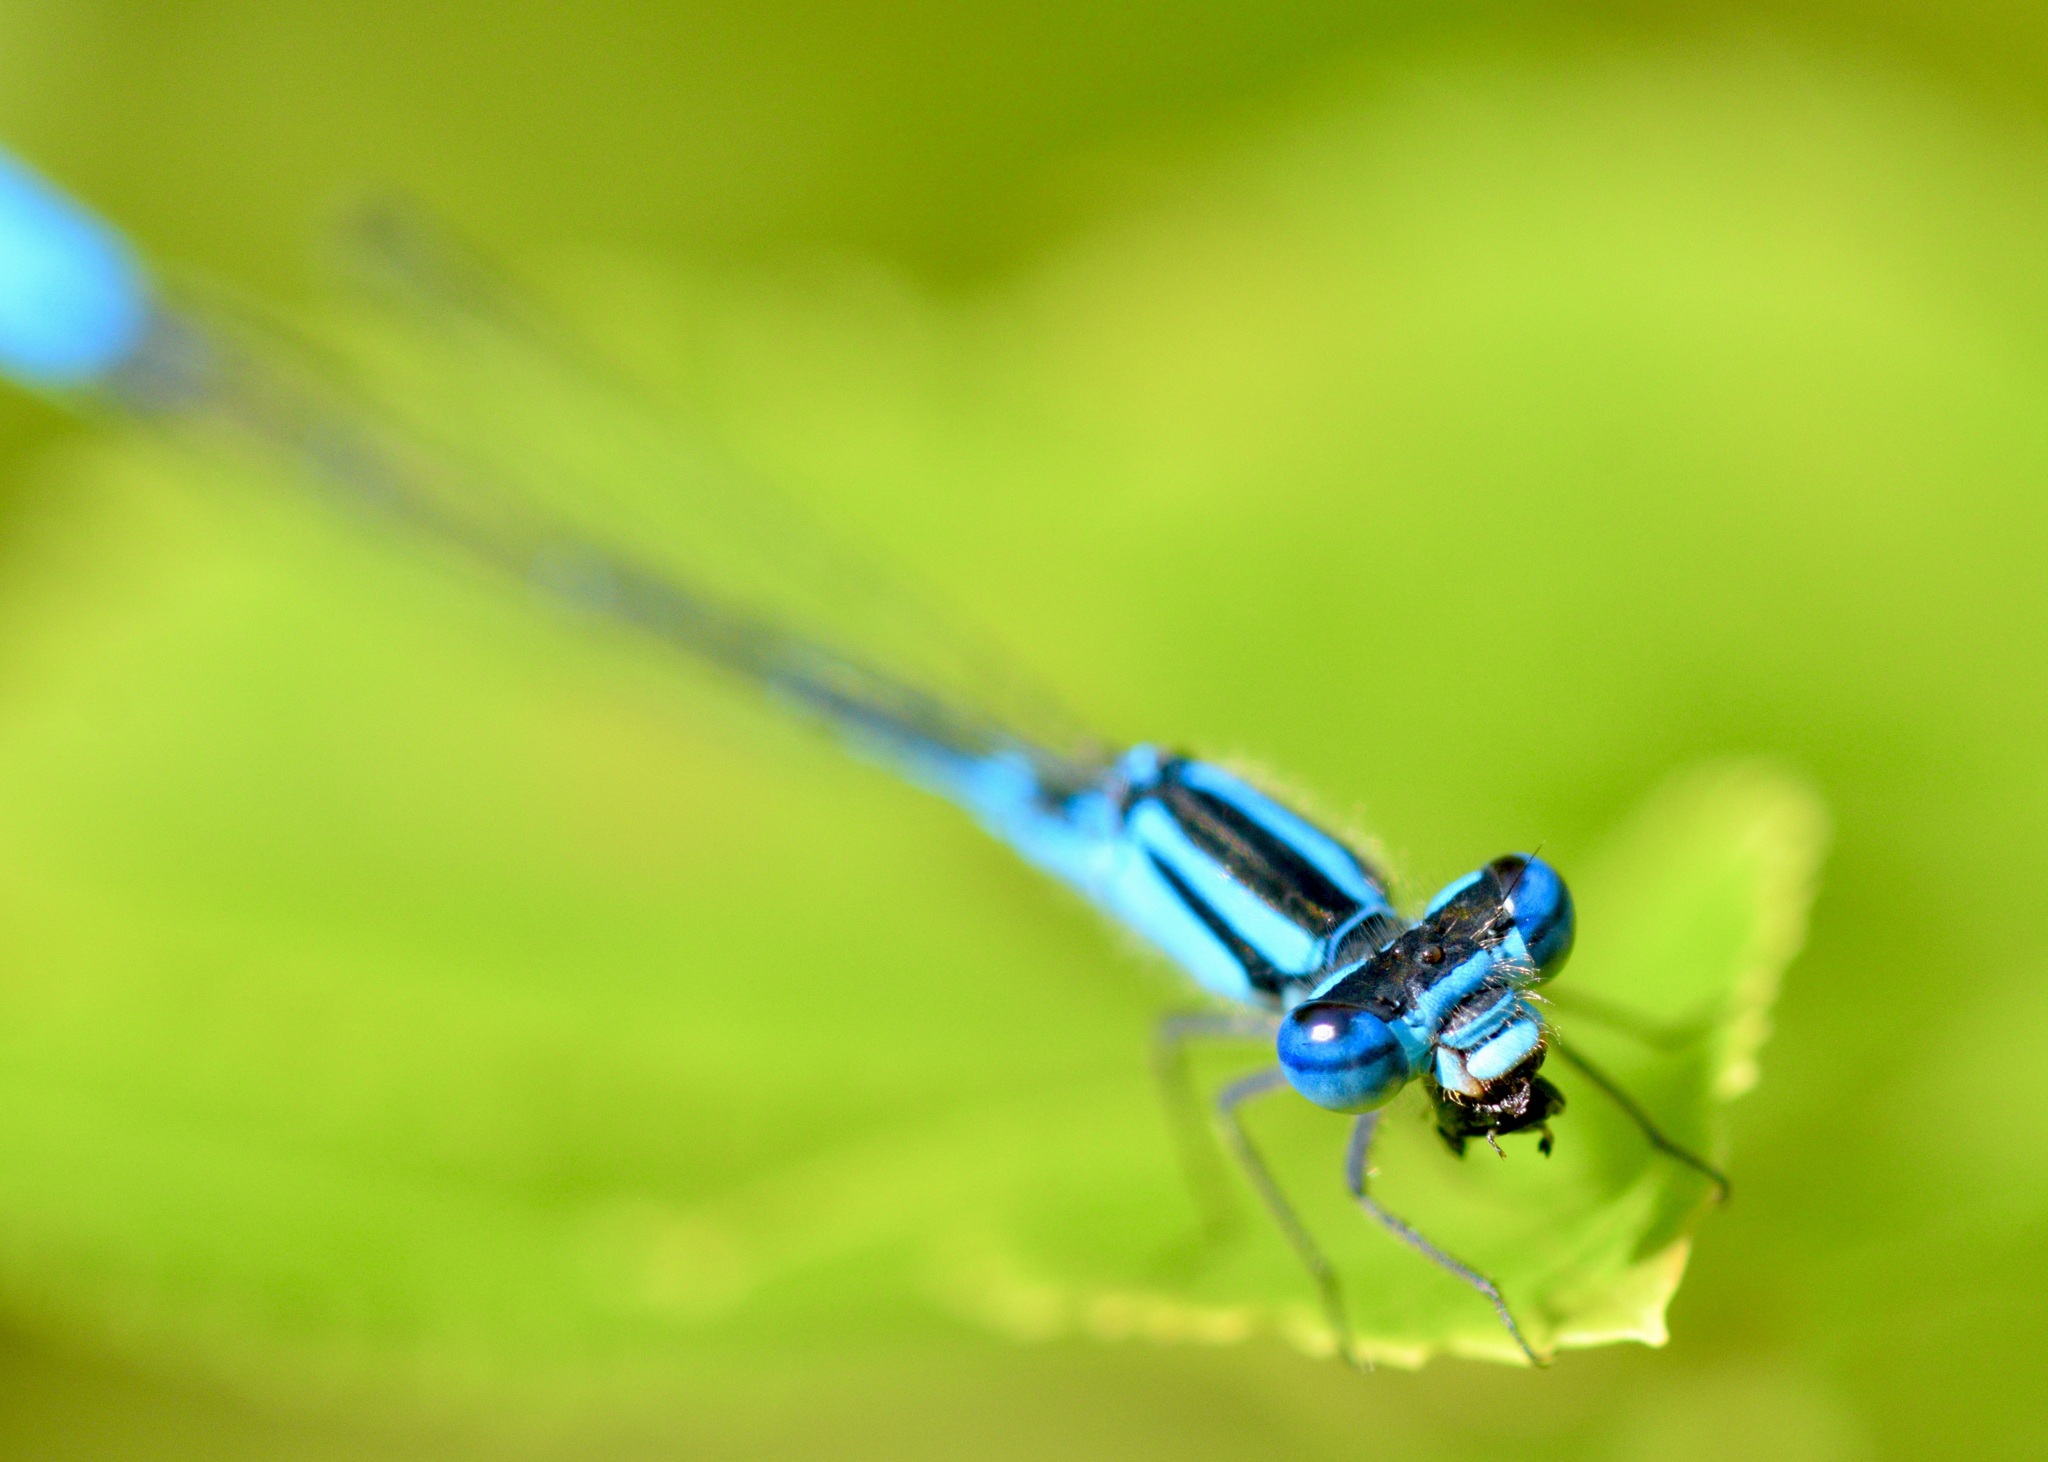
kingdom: Animalia
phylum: Arthropoda
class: Insecta
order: Odonata
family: Coenagrionidae
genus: Enallagma
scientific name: Enallagma aspersum
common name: Azure bluet
